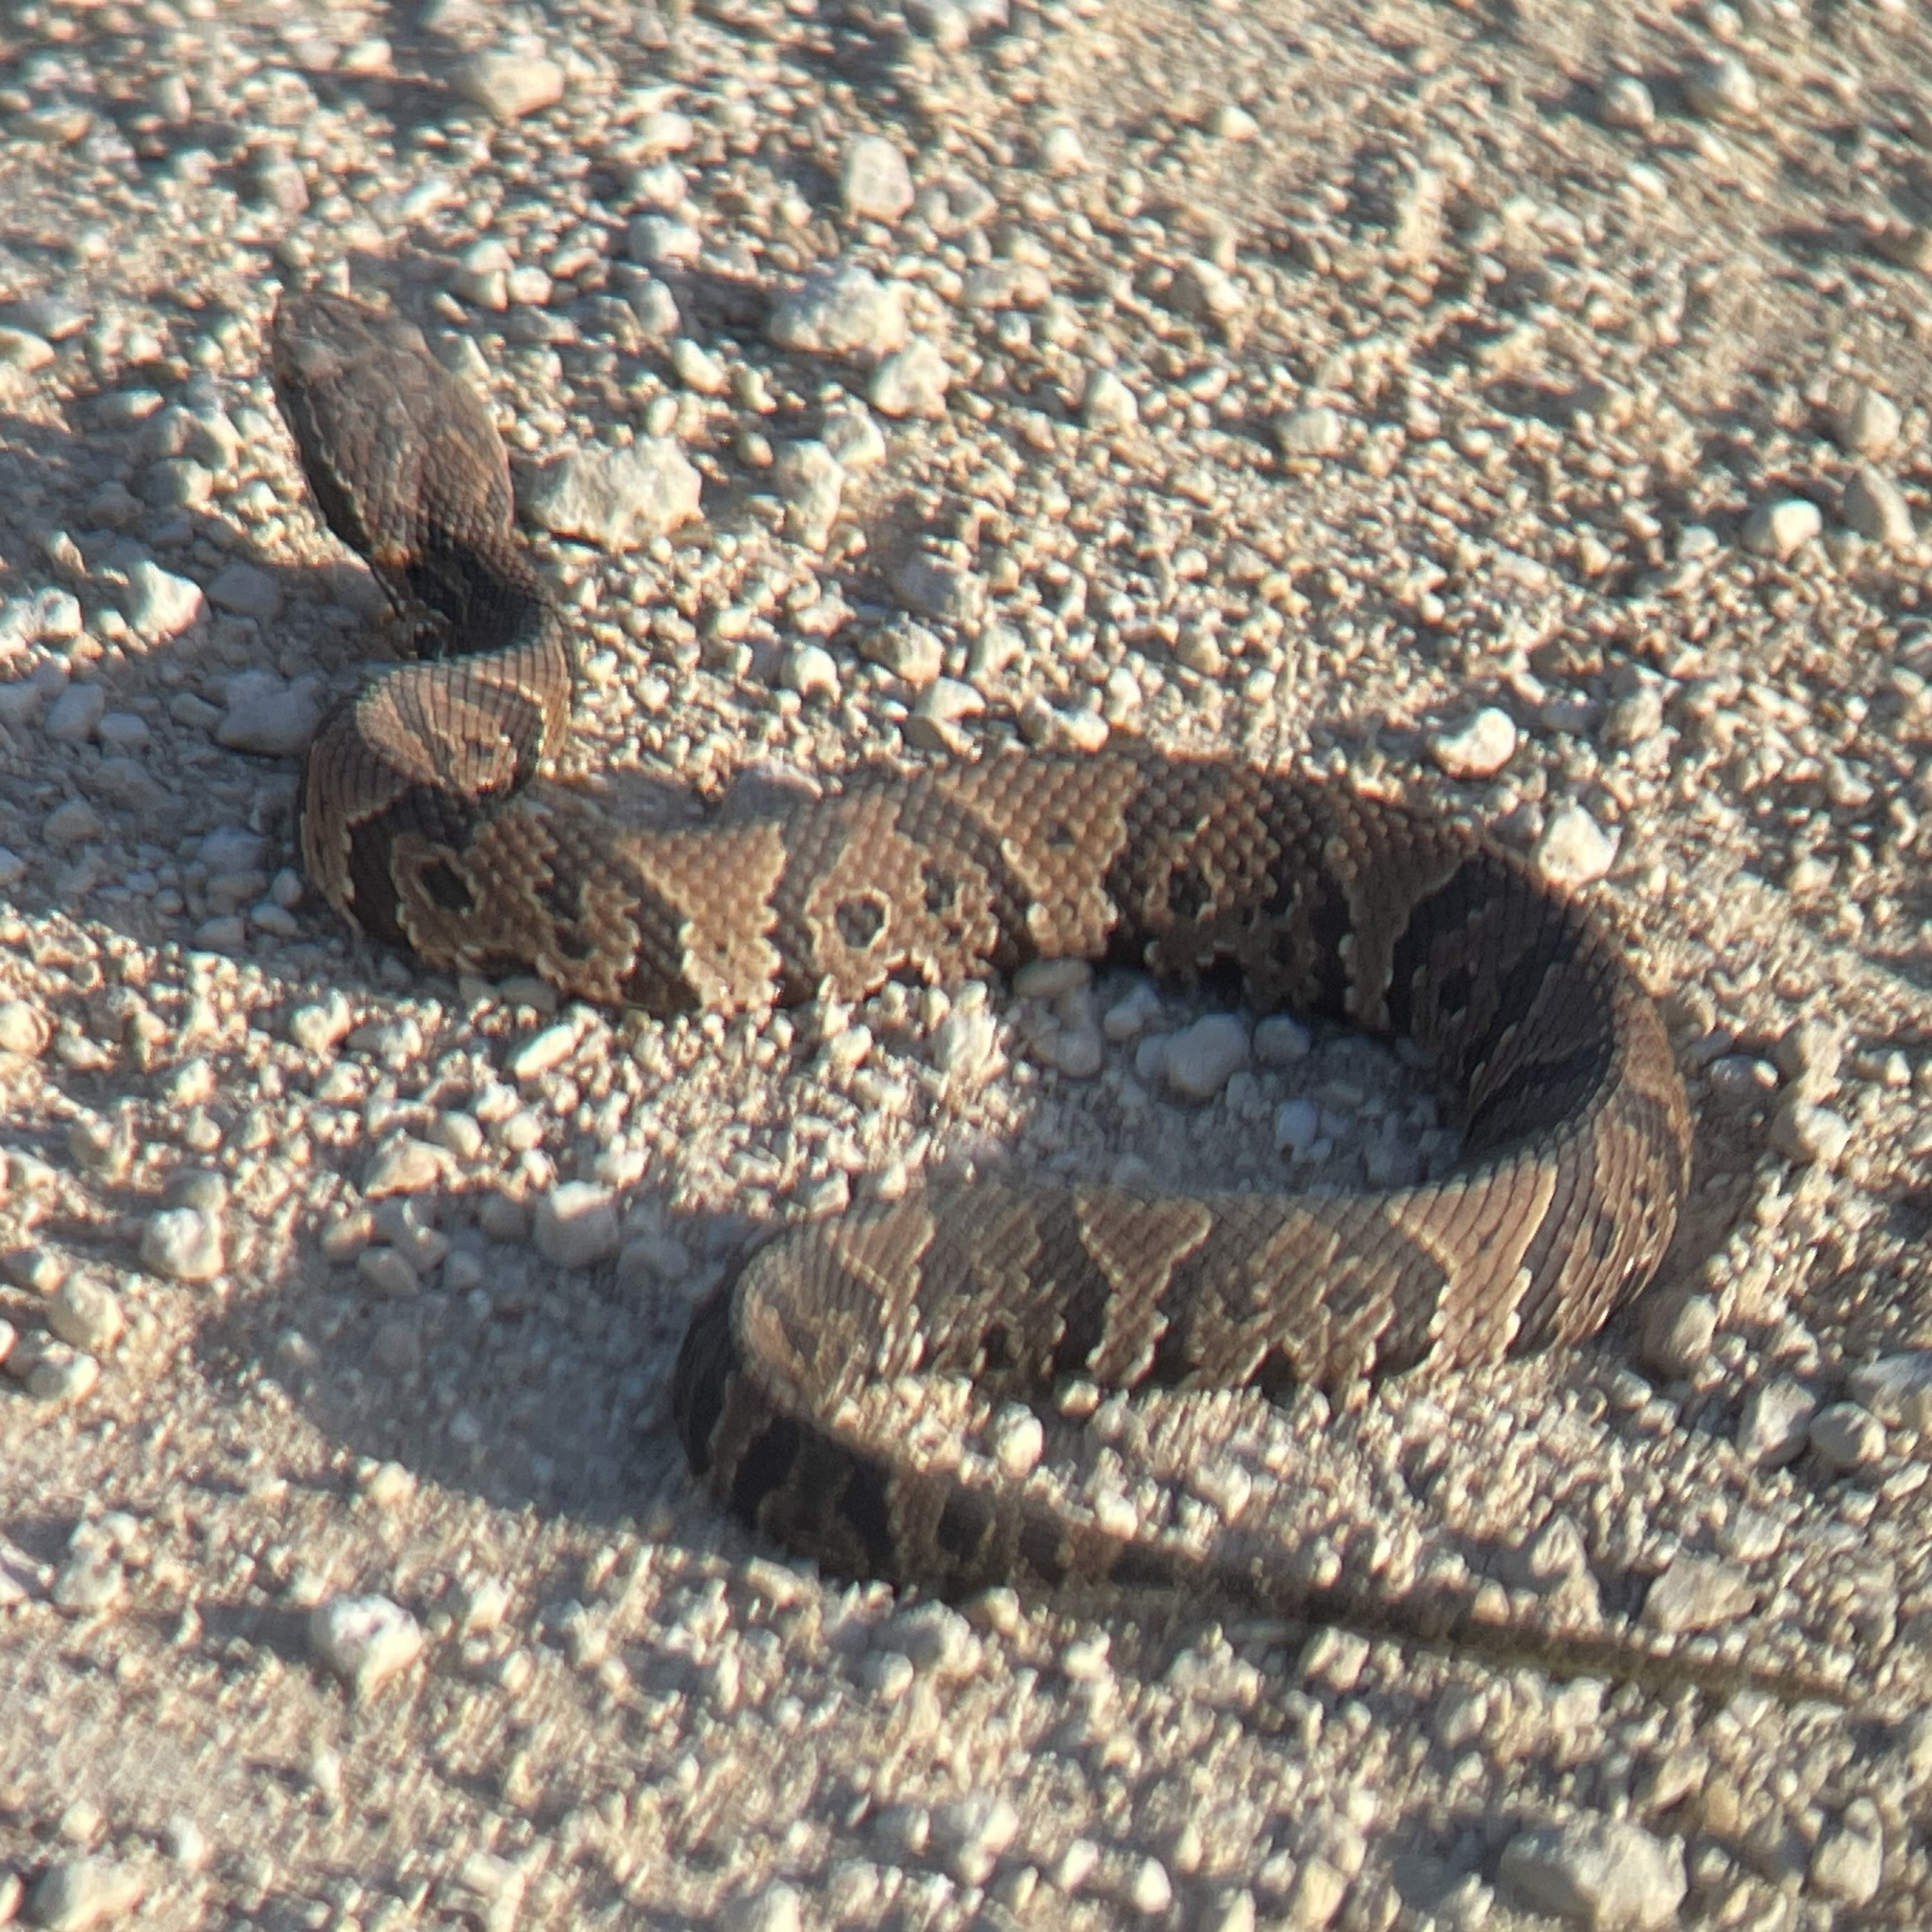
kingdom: Animalia
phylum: Chordata
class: Squamata
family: Viperidae
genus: Agkistrodon
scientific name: Agkistrodon conanti
